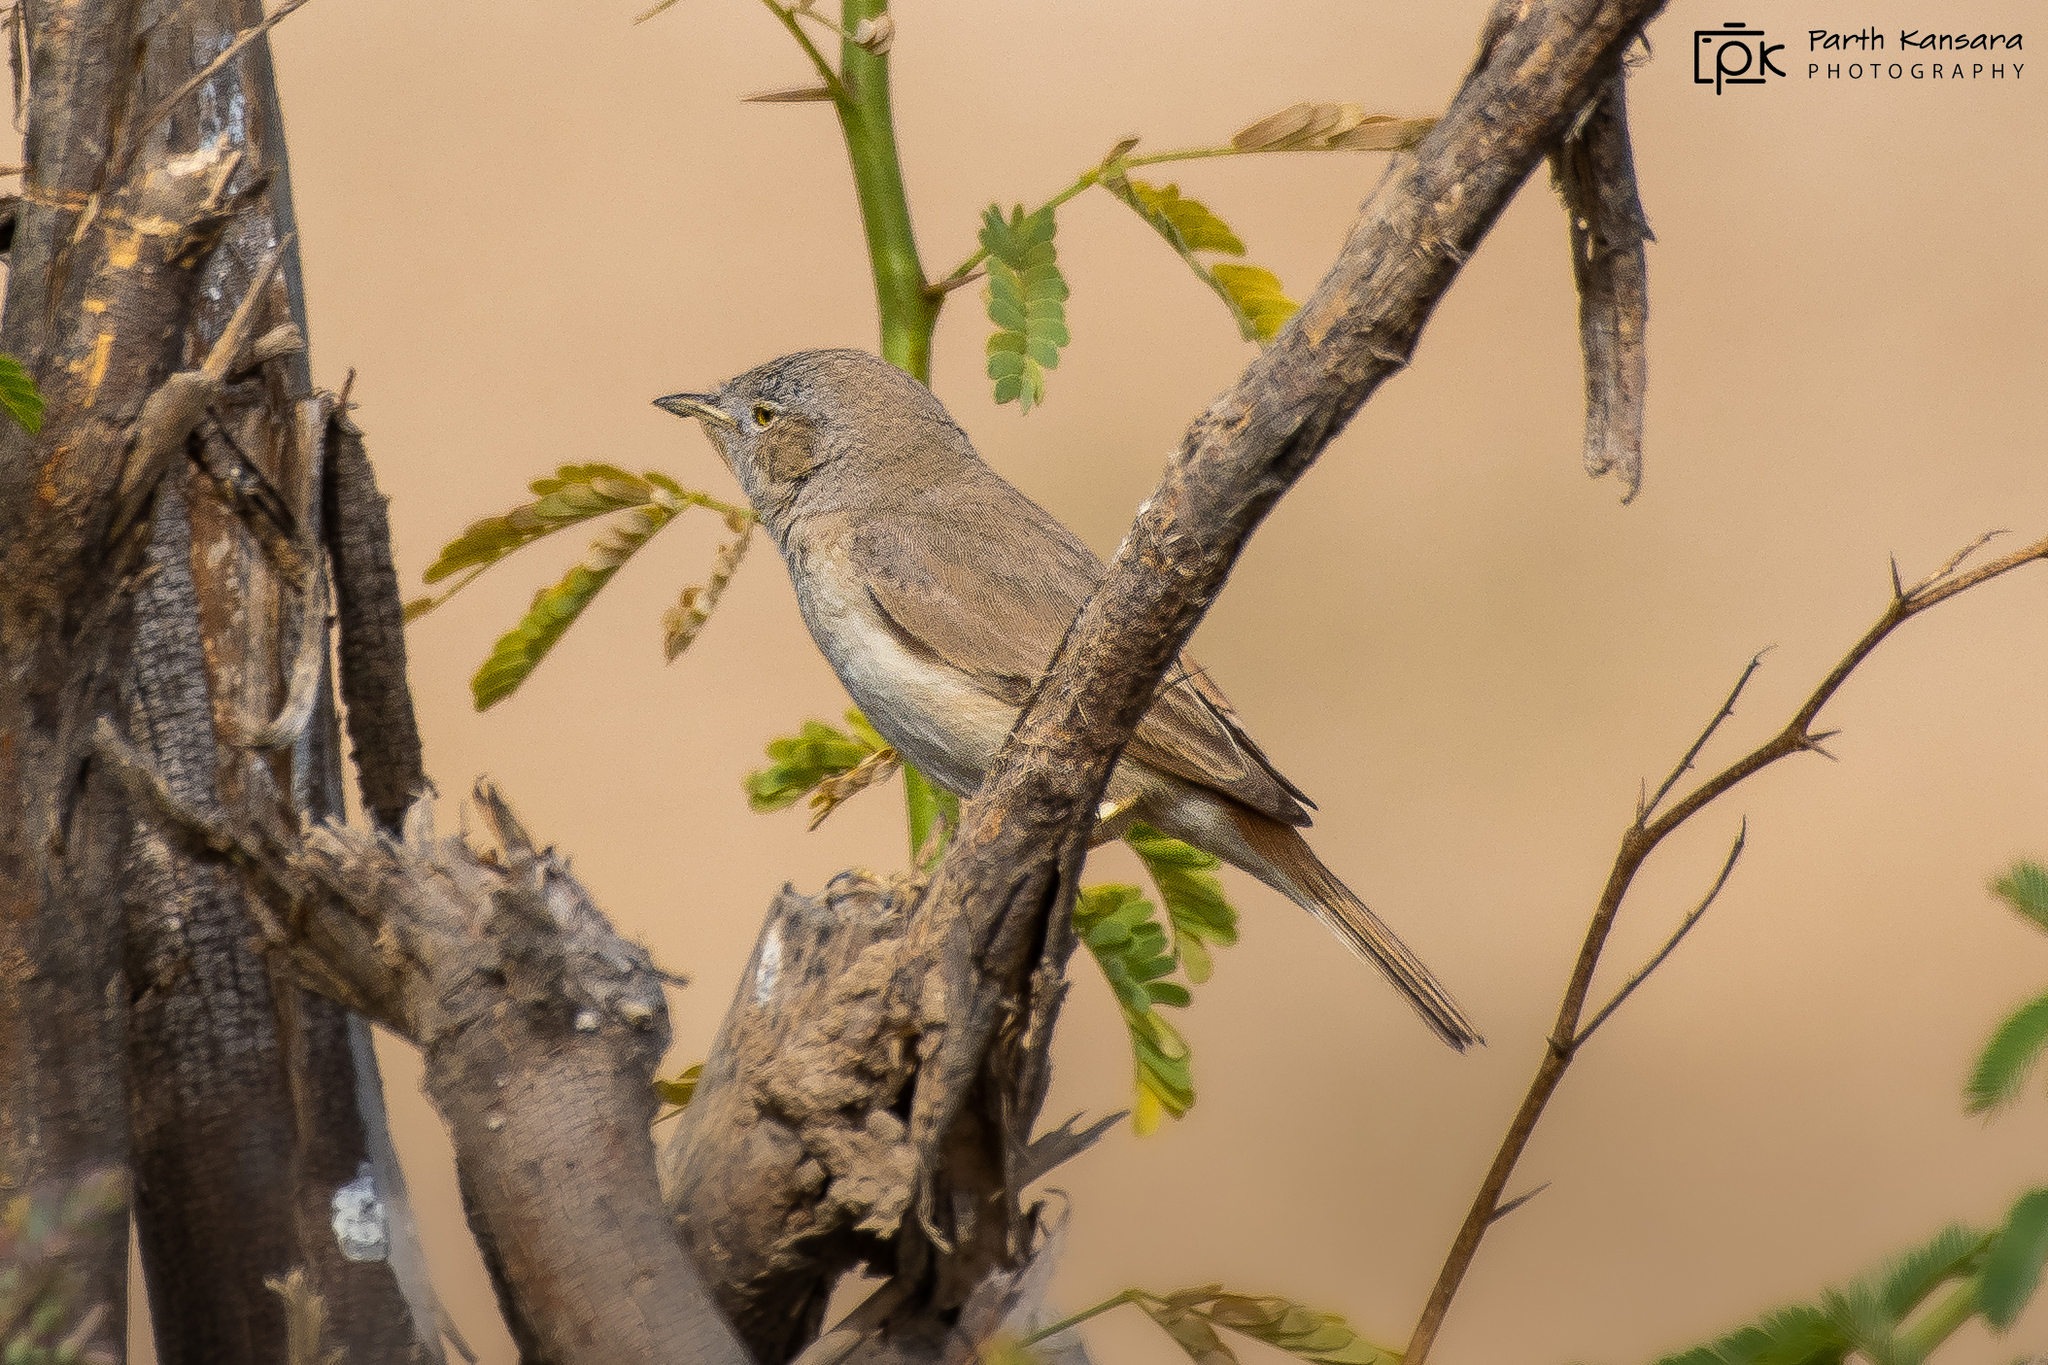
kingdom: Animalia
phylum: Chordata
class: Aves
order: Passeriformes
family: Sylviidae
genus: Sylvia
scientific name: Sylvia nana
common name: Asian desert warbler
